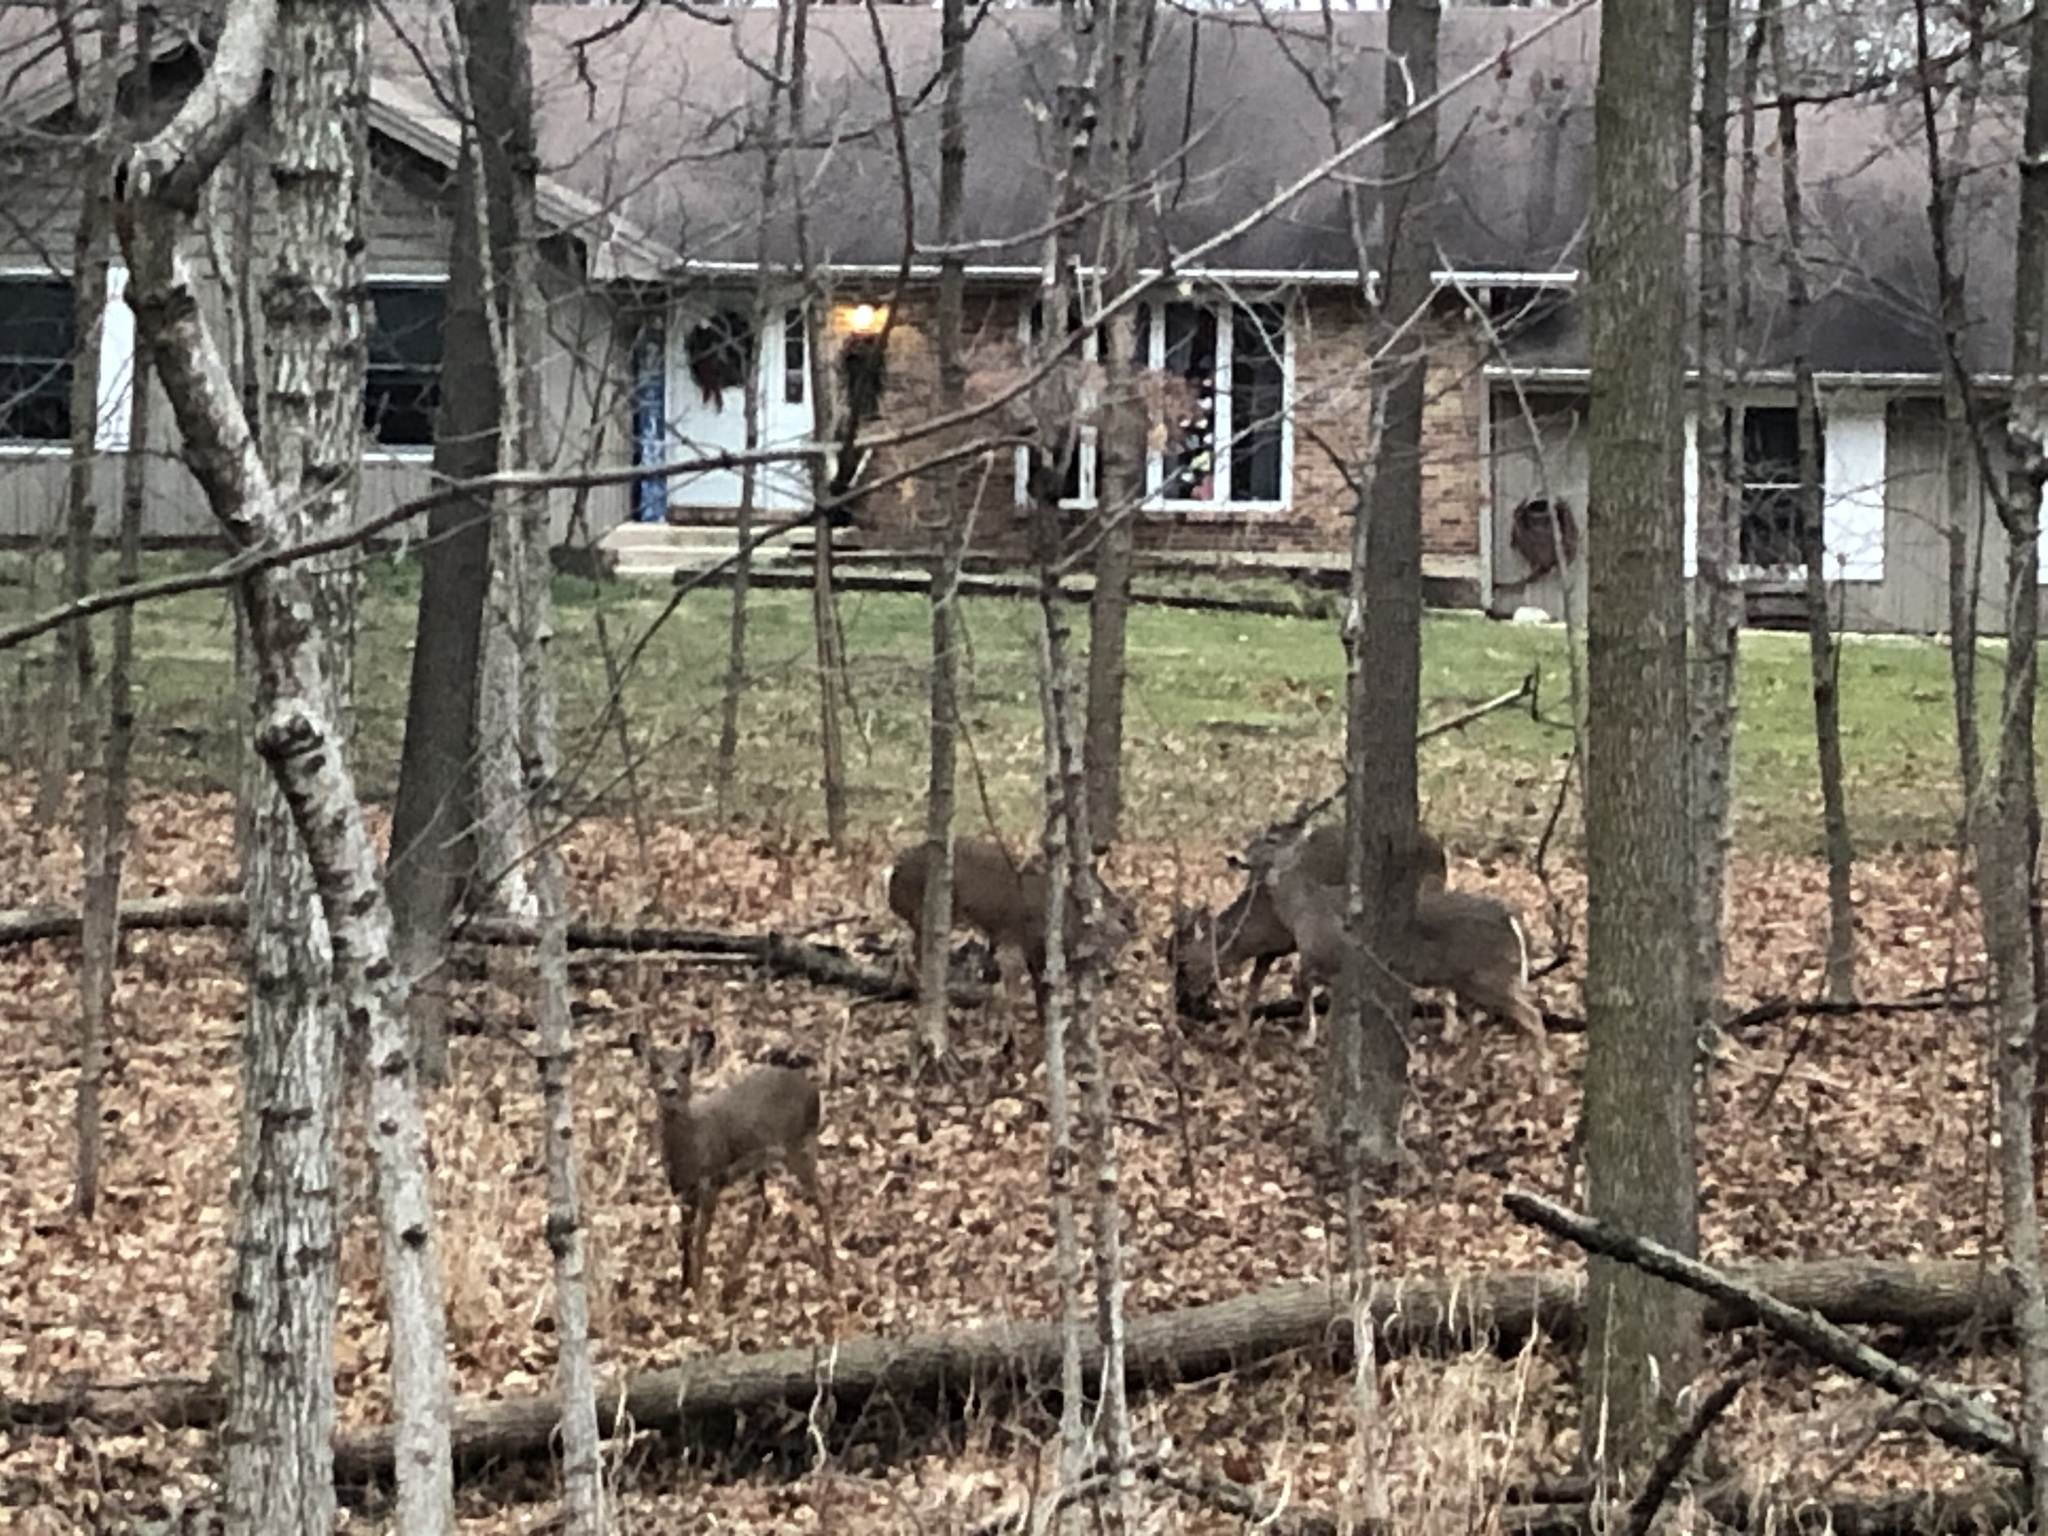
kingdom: Animalia
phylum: Chordata
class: Mammalia
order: Artiodactyla
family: Cervidae
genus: Odocoileus
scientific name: Odocoileus virginianus
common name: White-tailed deer
